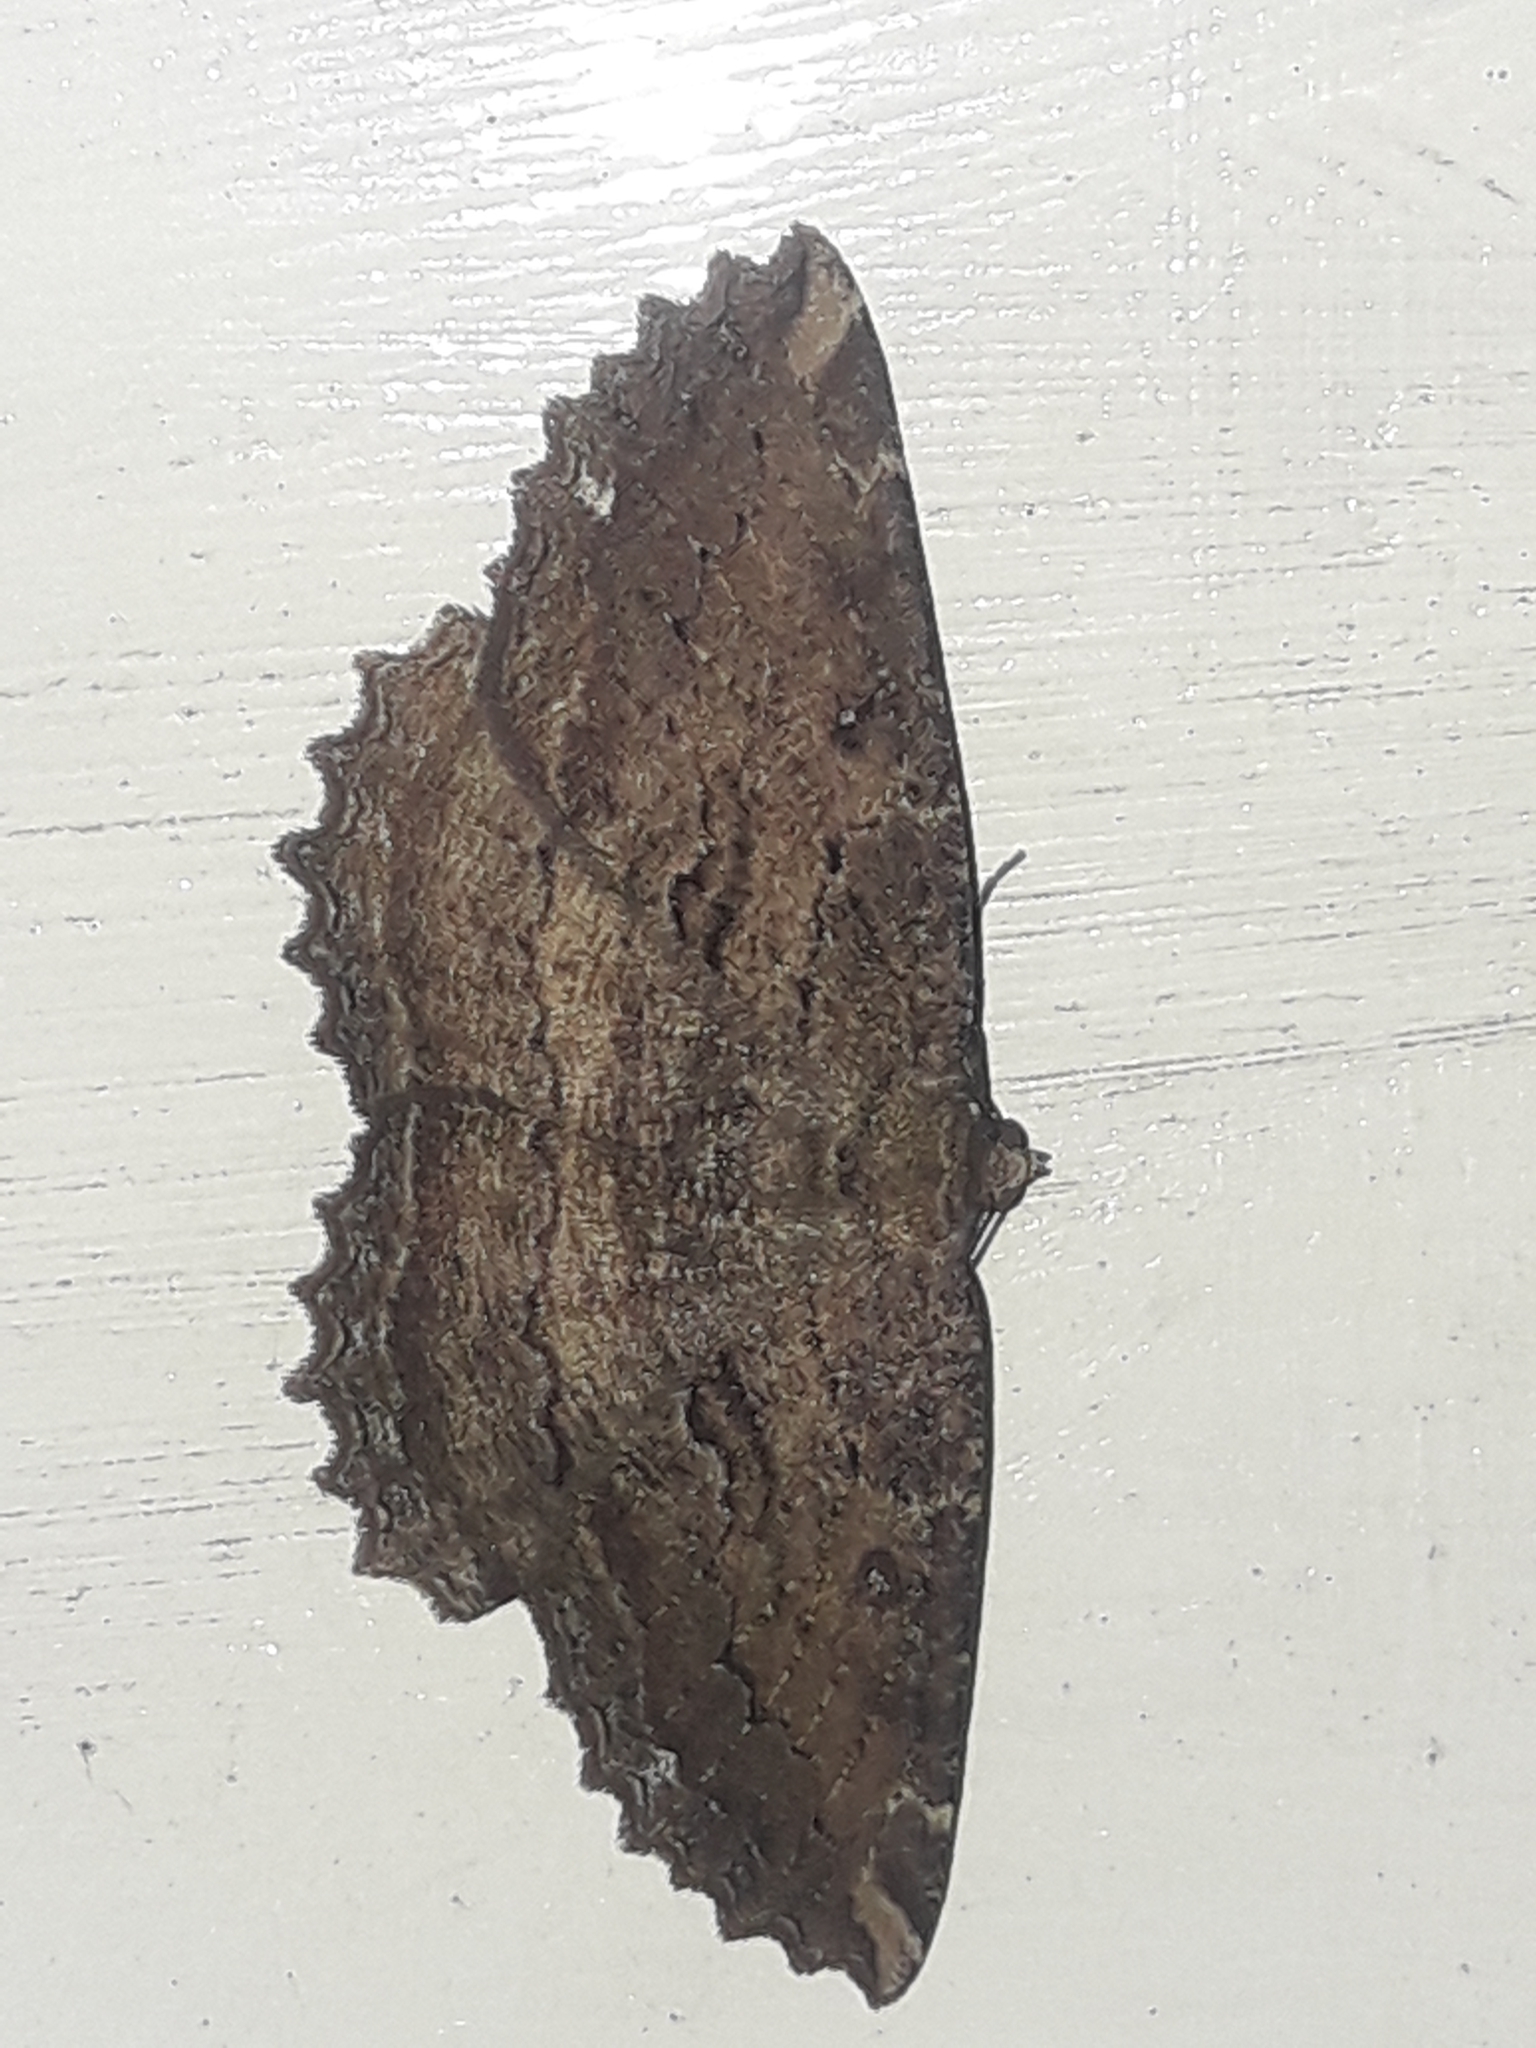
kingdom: Animalia
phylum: Arthropoda
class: Insecta
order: Lepidoptera
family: Geometridae
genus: Gellonia
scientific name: Gellonia dejectaria
